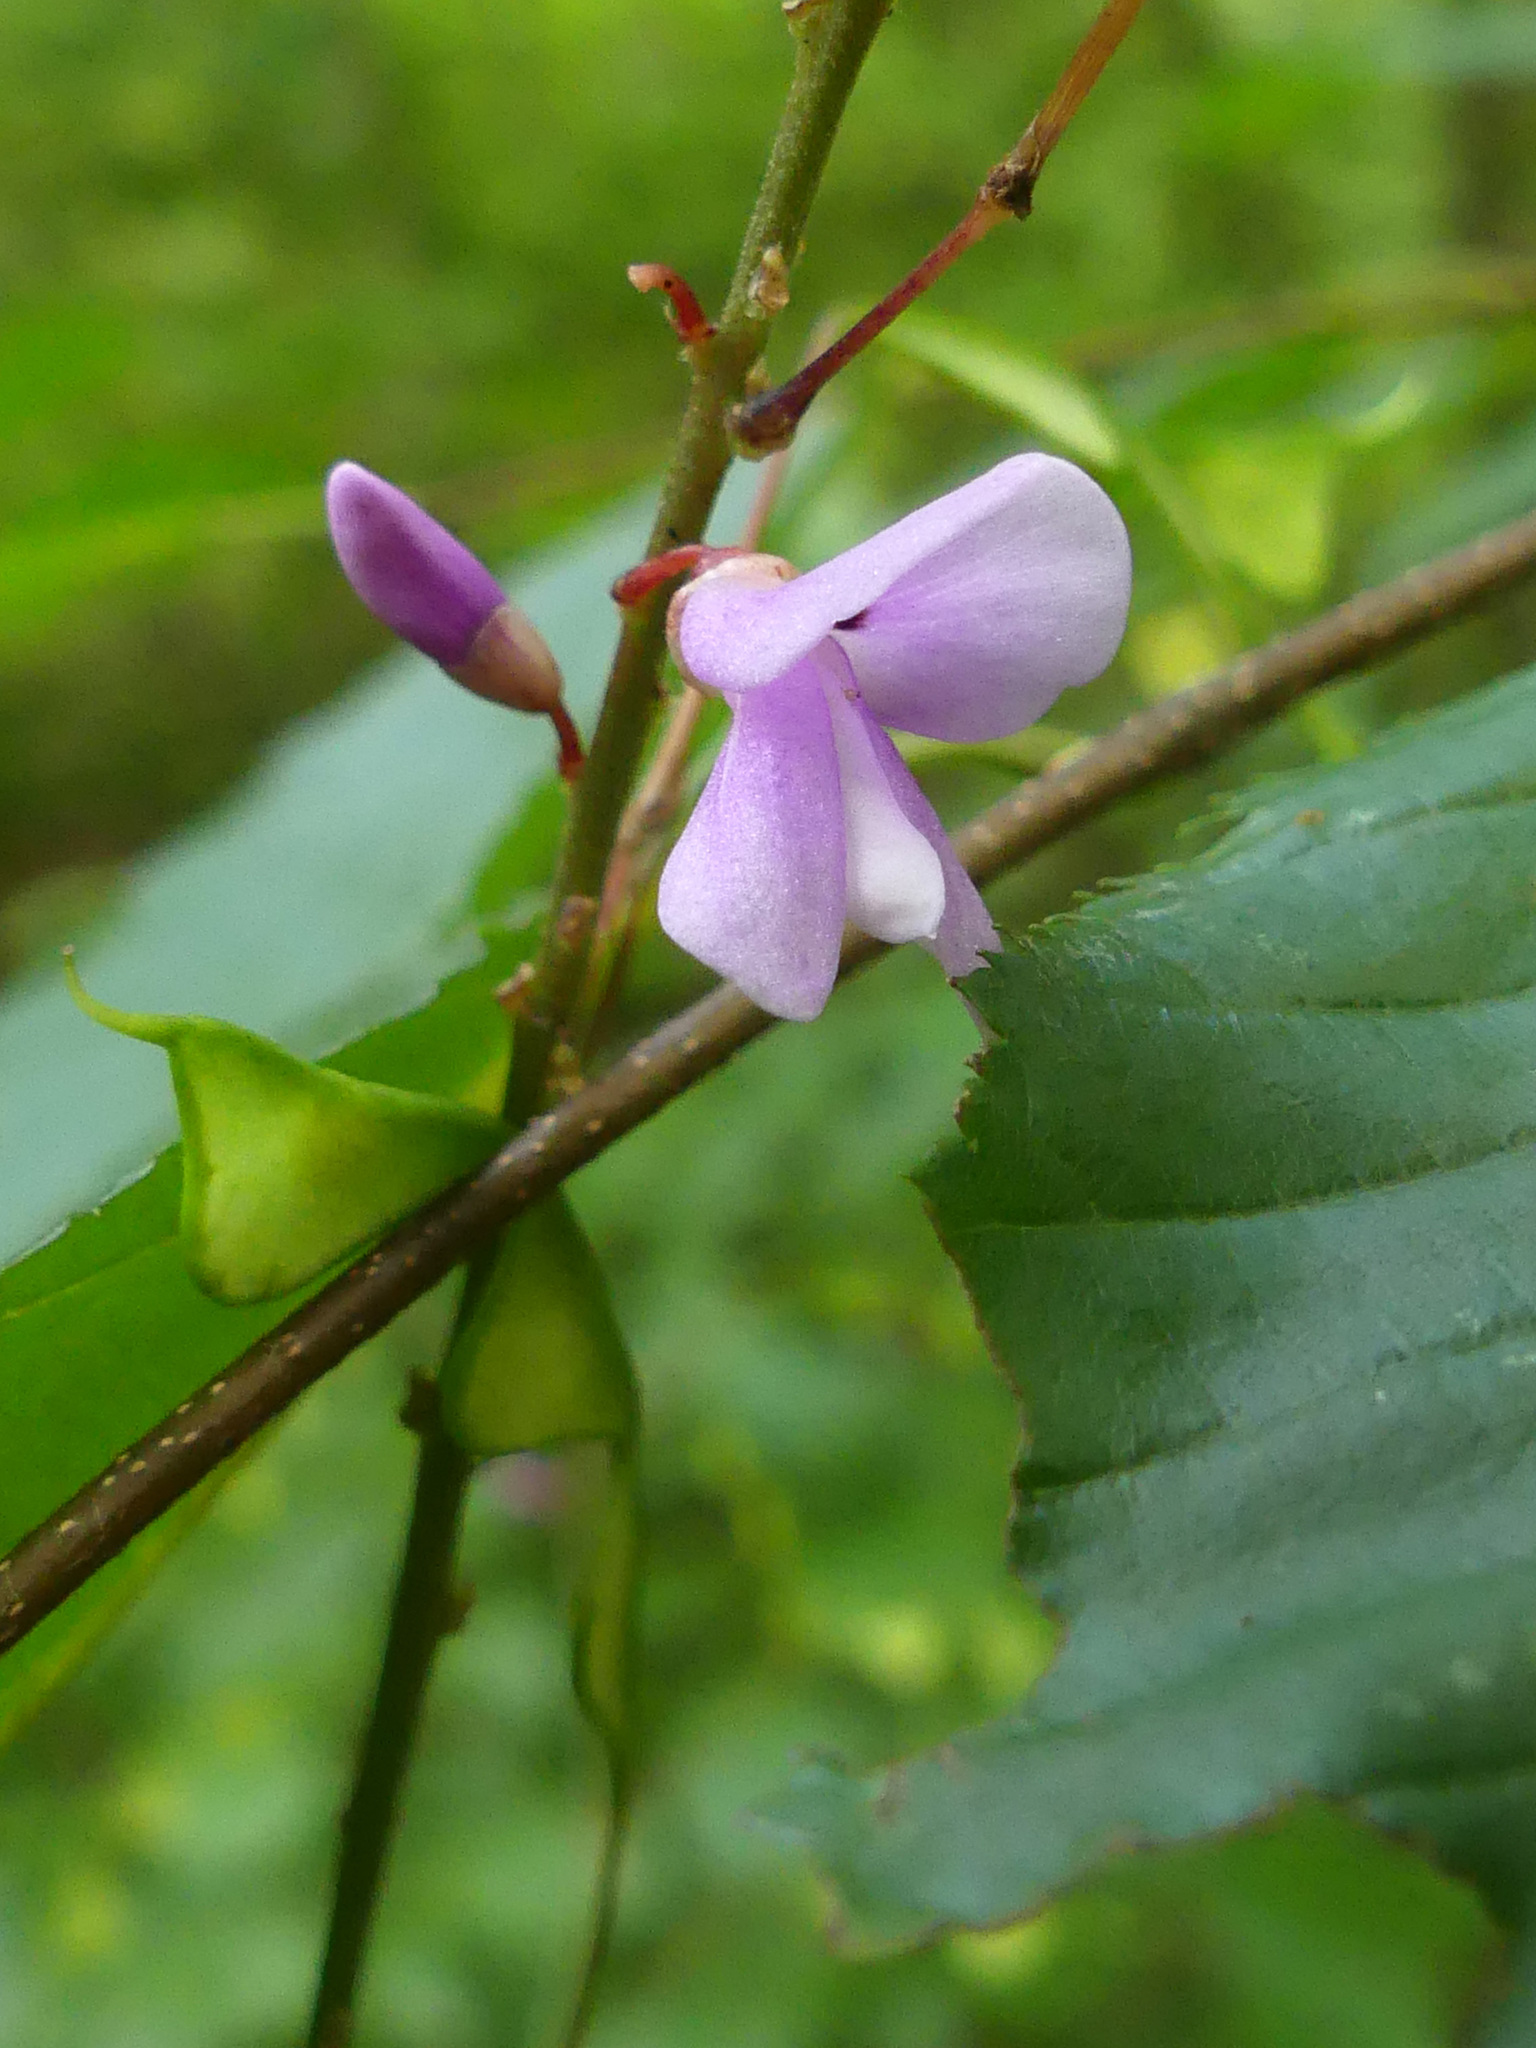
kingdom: Plantae
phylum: Tracheophyta
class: Magnoliopsida
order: Fabales
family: Fabaceae
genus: Hylodesmum
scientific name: Hylodesmum nudiflorum
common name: Bare-stemmed tick-trefoil
